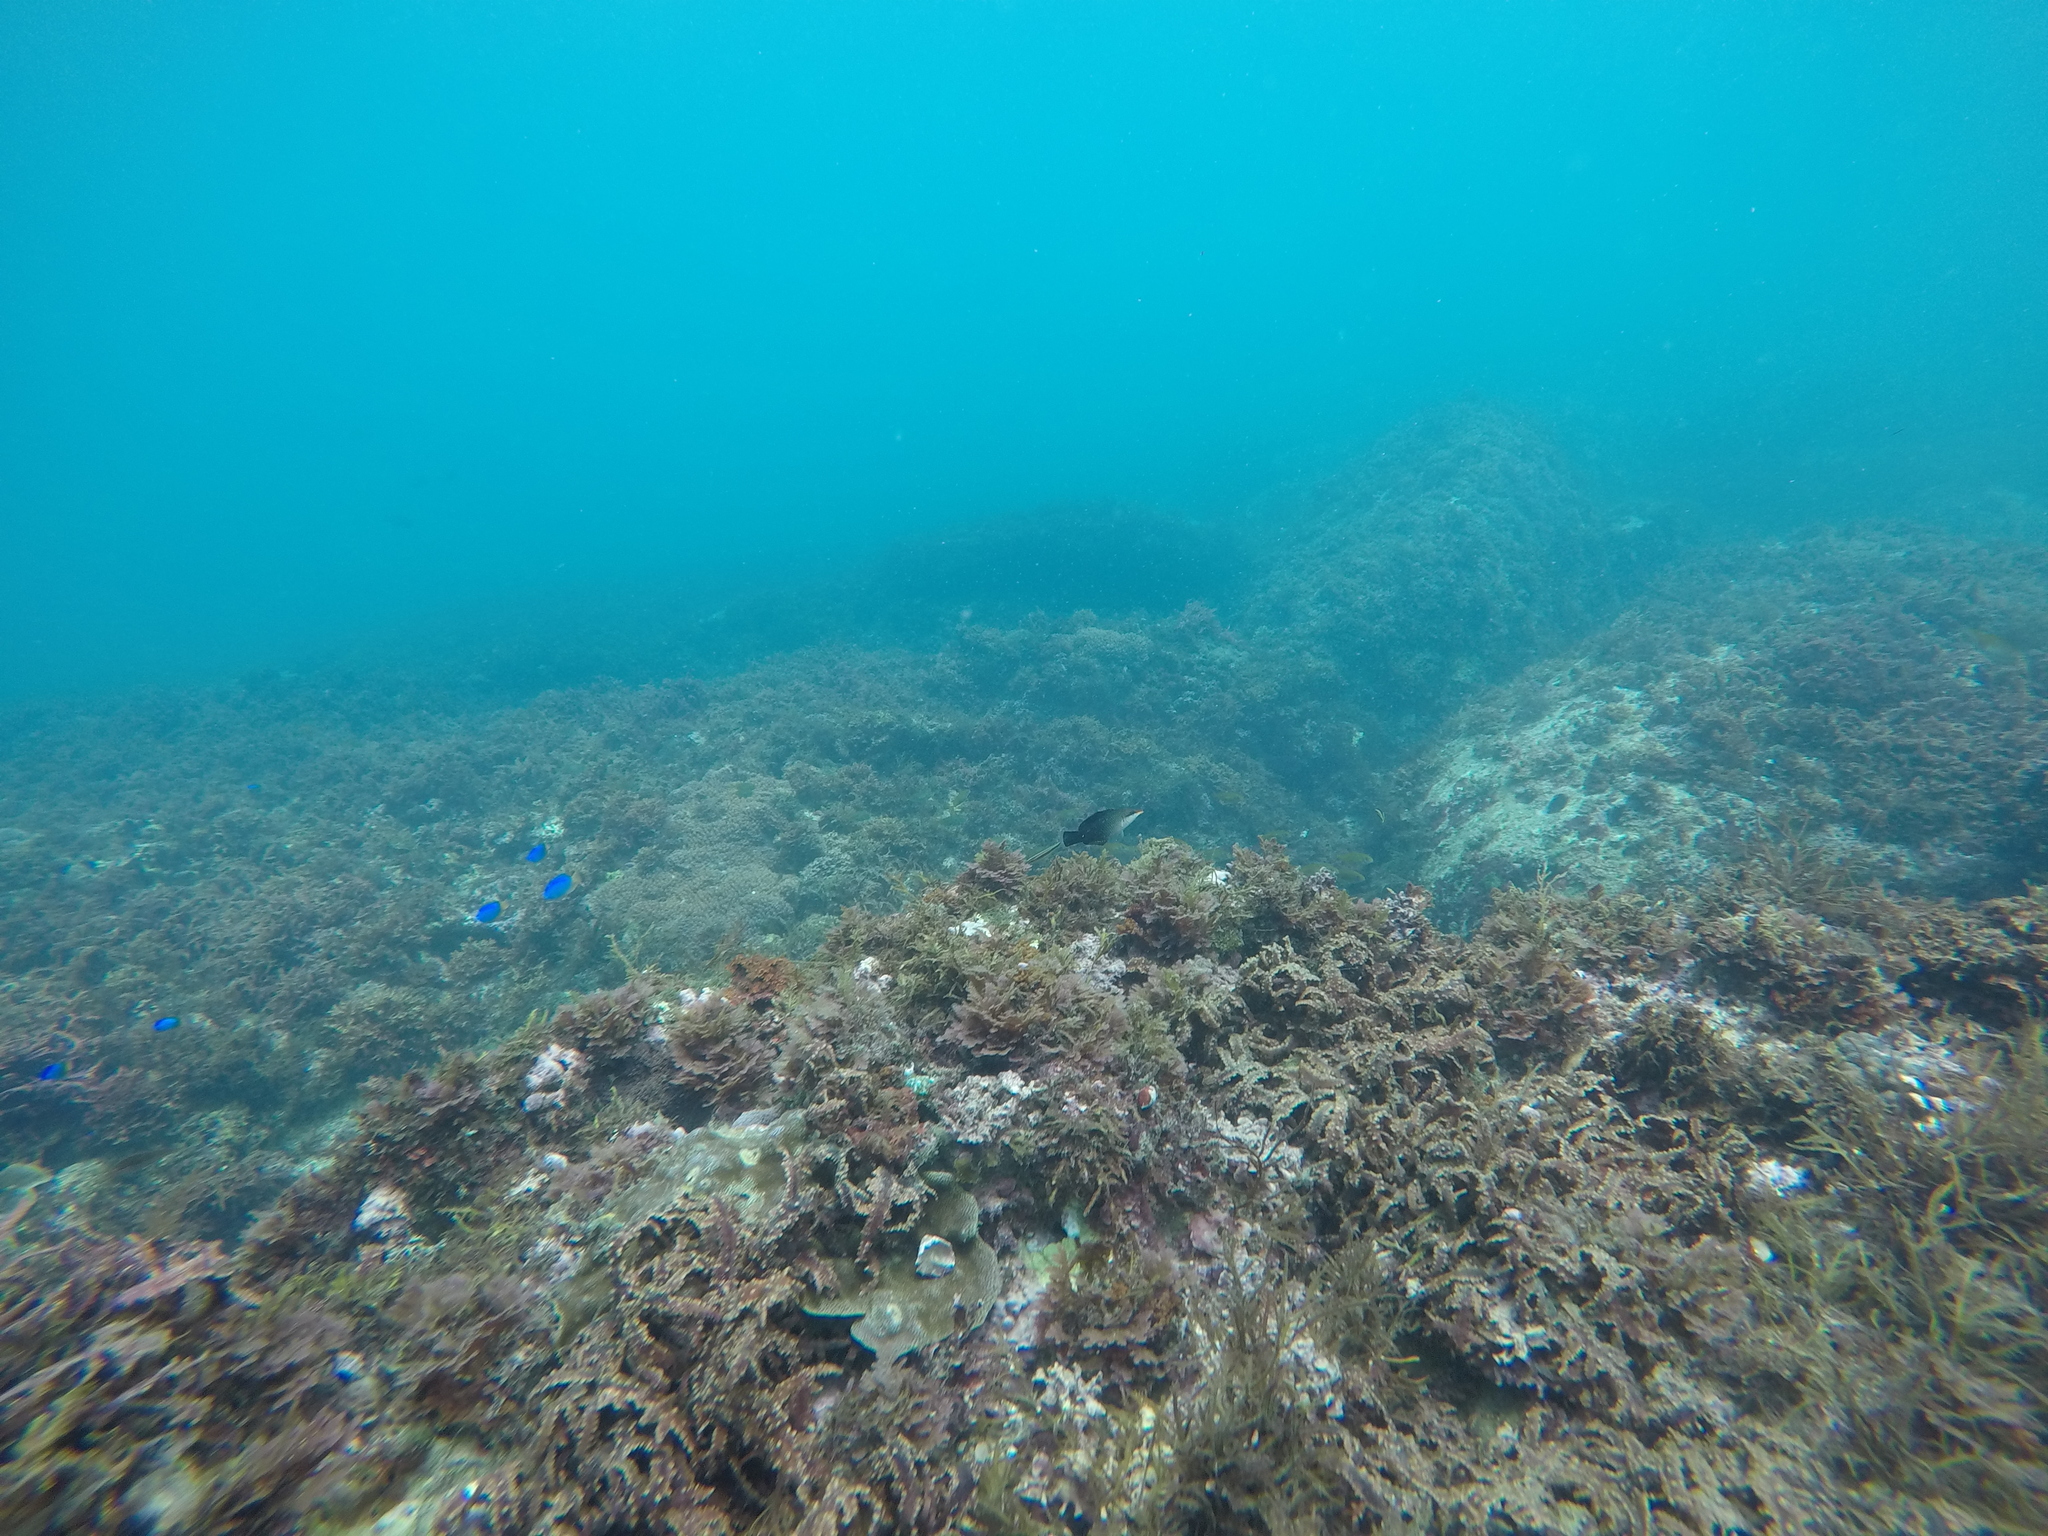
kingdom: Animalia
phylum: Chordata
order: Perciformes
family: Labridae
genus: Gomphosus
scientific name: Gomphosus varius
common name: Bird wrasse
